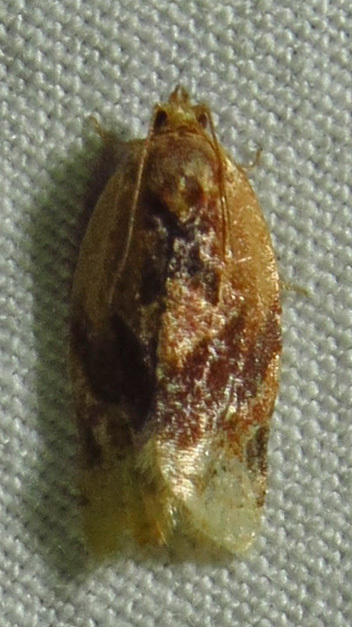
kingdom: Animalia
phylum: Arthropoda
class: Insecta
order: Lepidoptera
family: Tortricidae
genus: Argyrotaenia
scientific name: Argyrotaenia velutinana
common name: Red-banded leafroller moth
